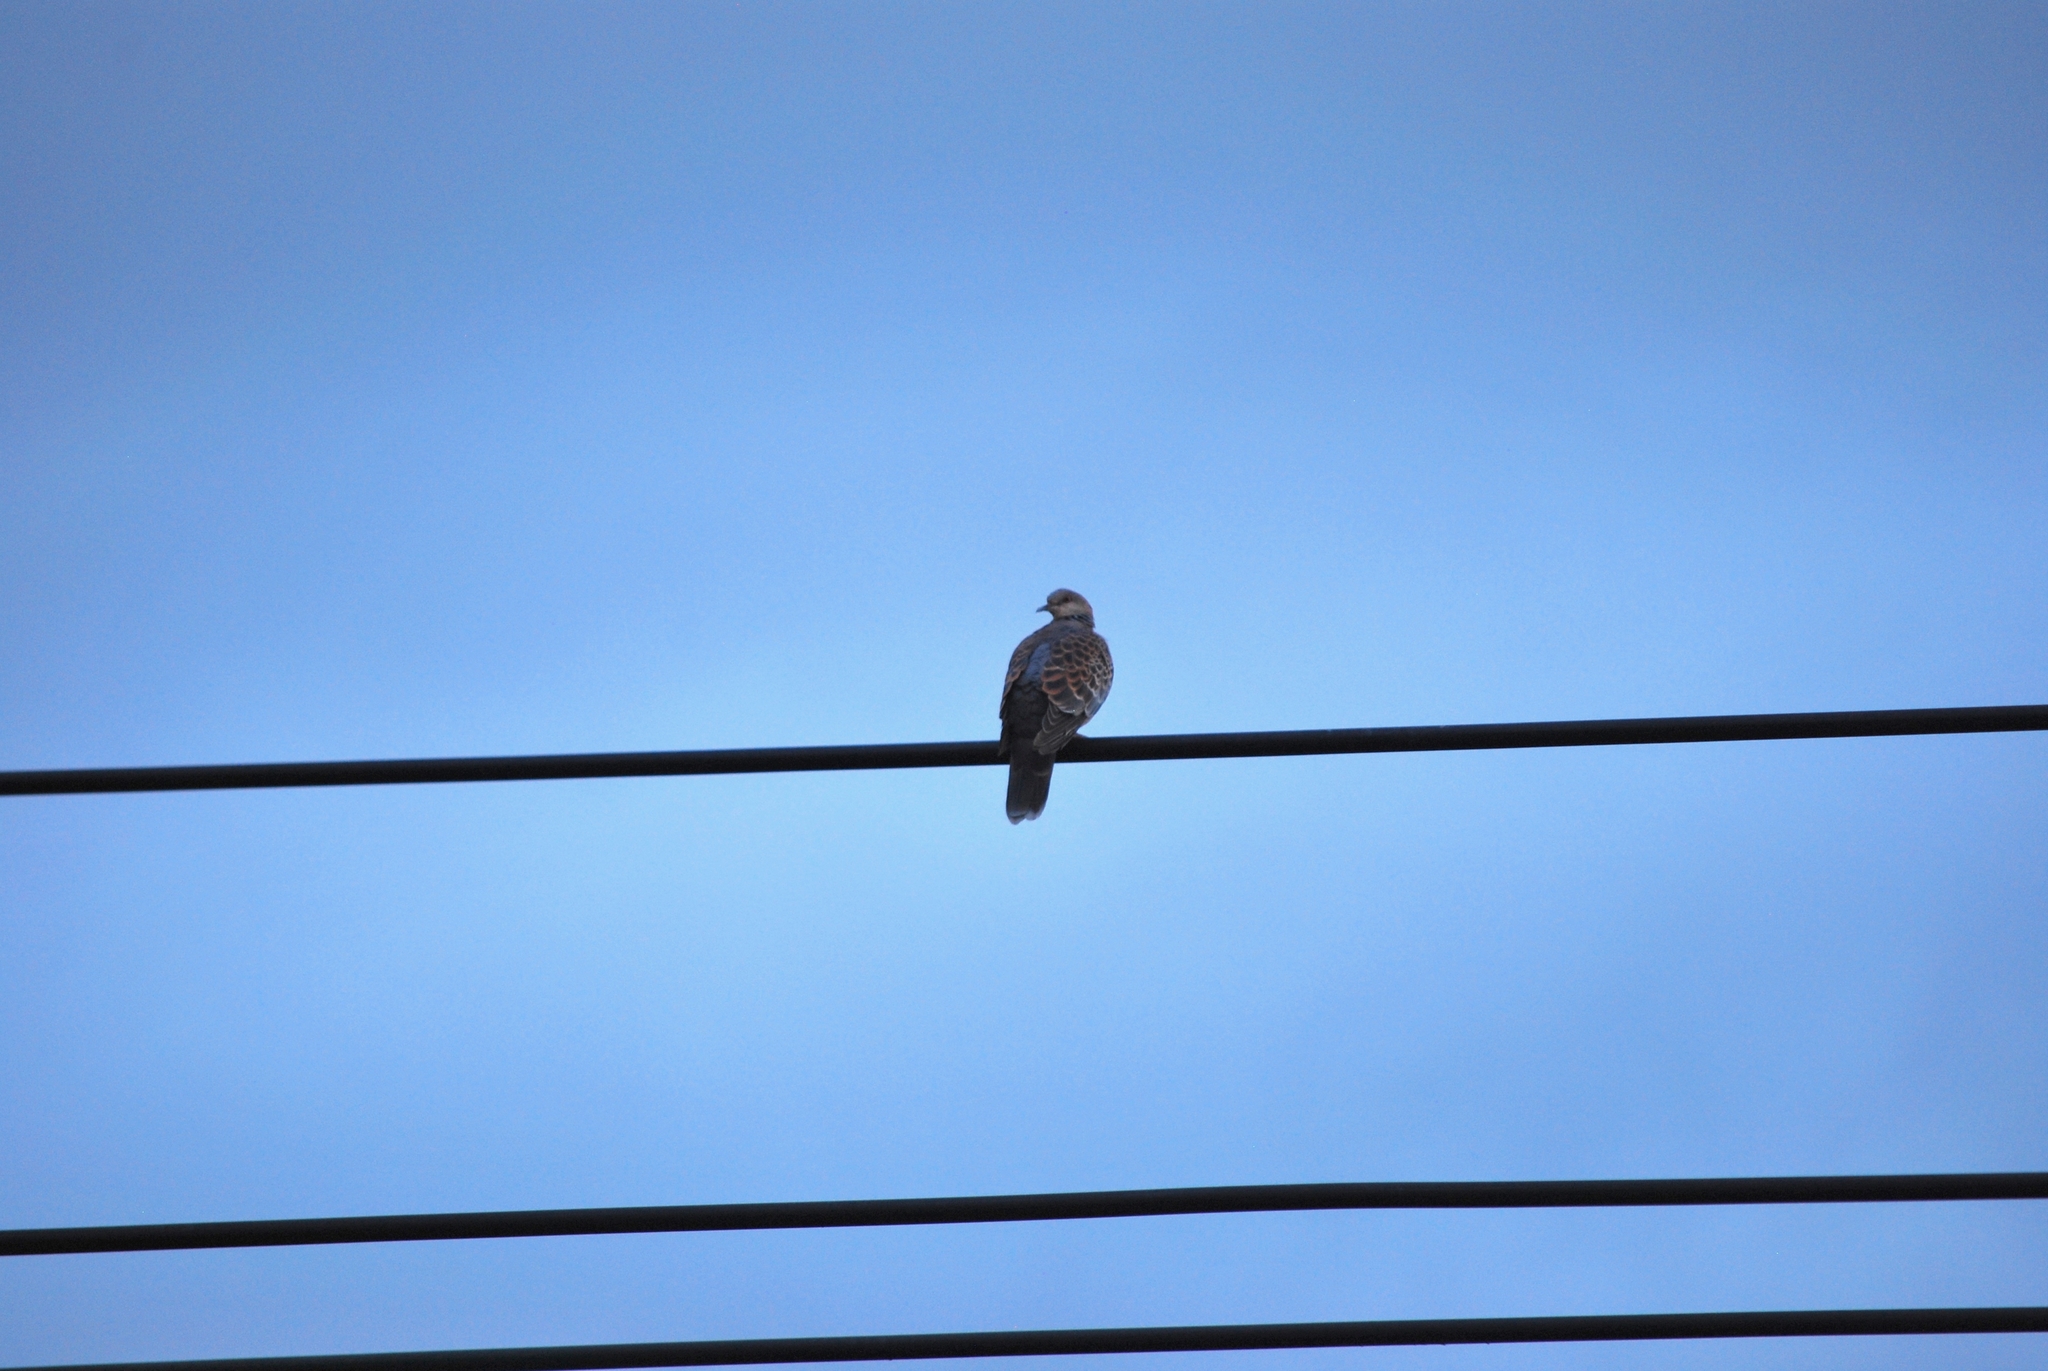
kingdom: Animalia
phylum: Chordata
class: Aves
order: Columbiformes
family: Columbidae
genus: Streptopelia
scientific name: Streptopelia orientalis
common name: Oriental turtle dove
